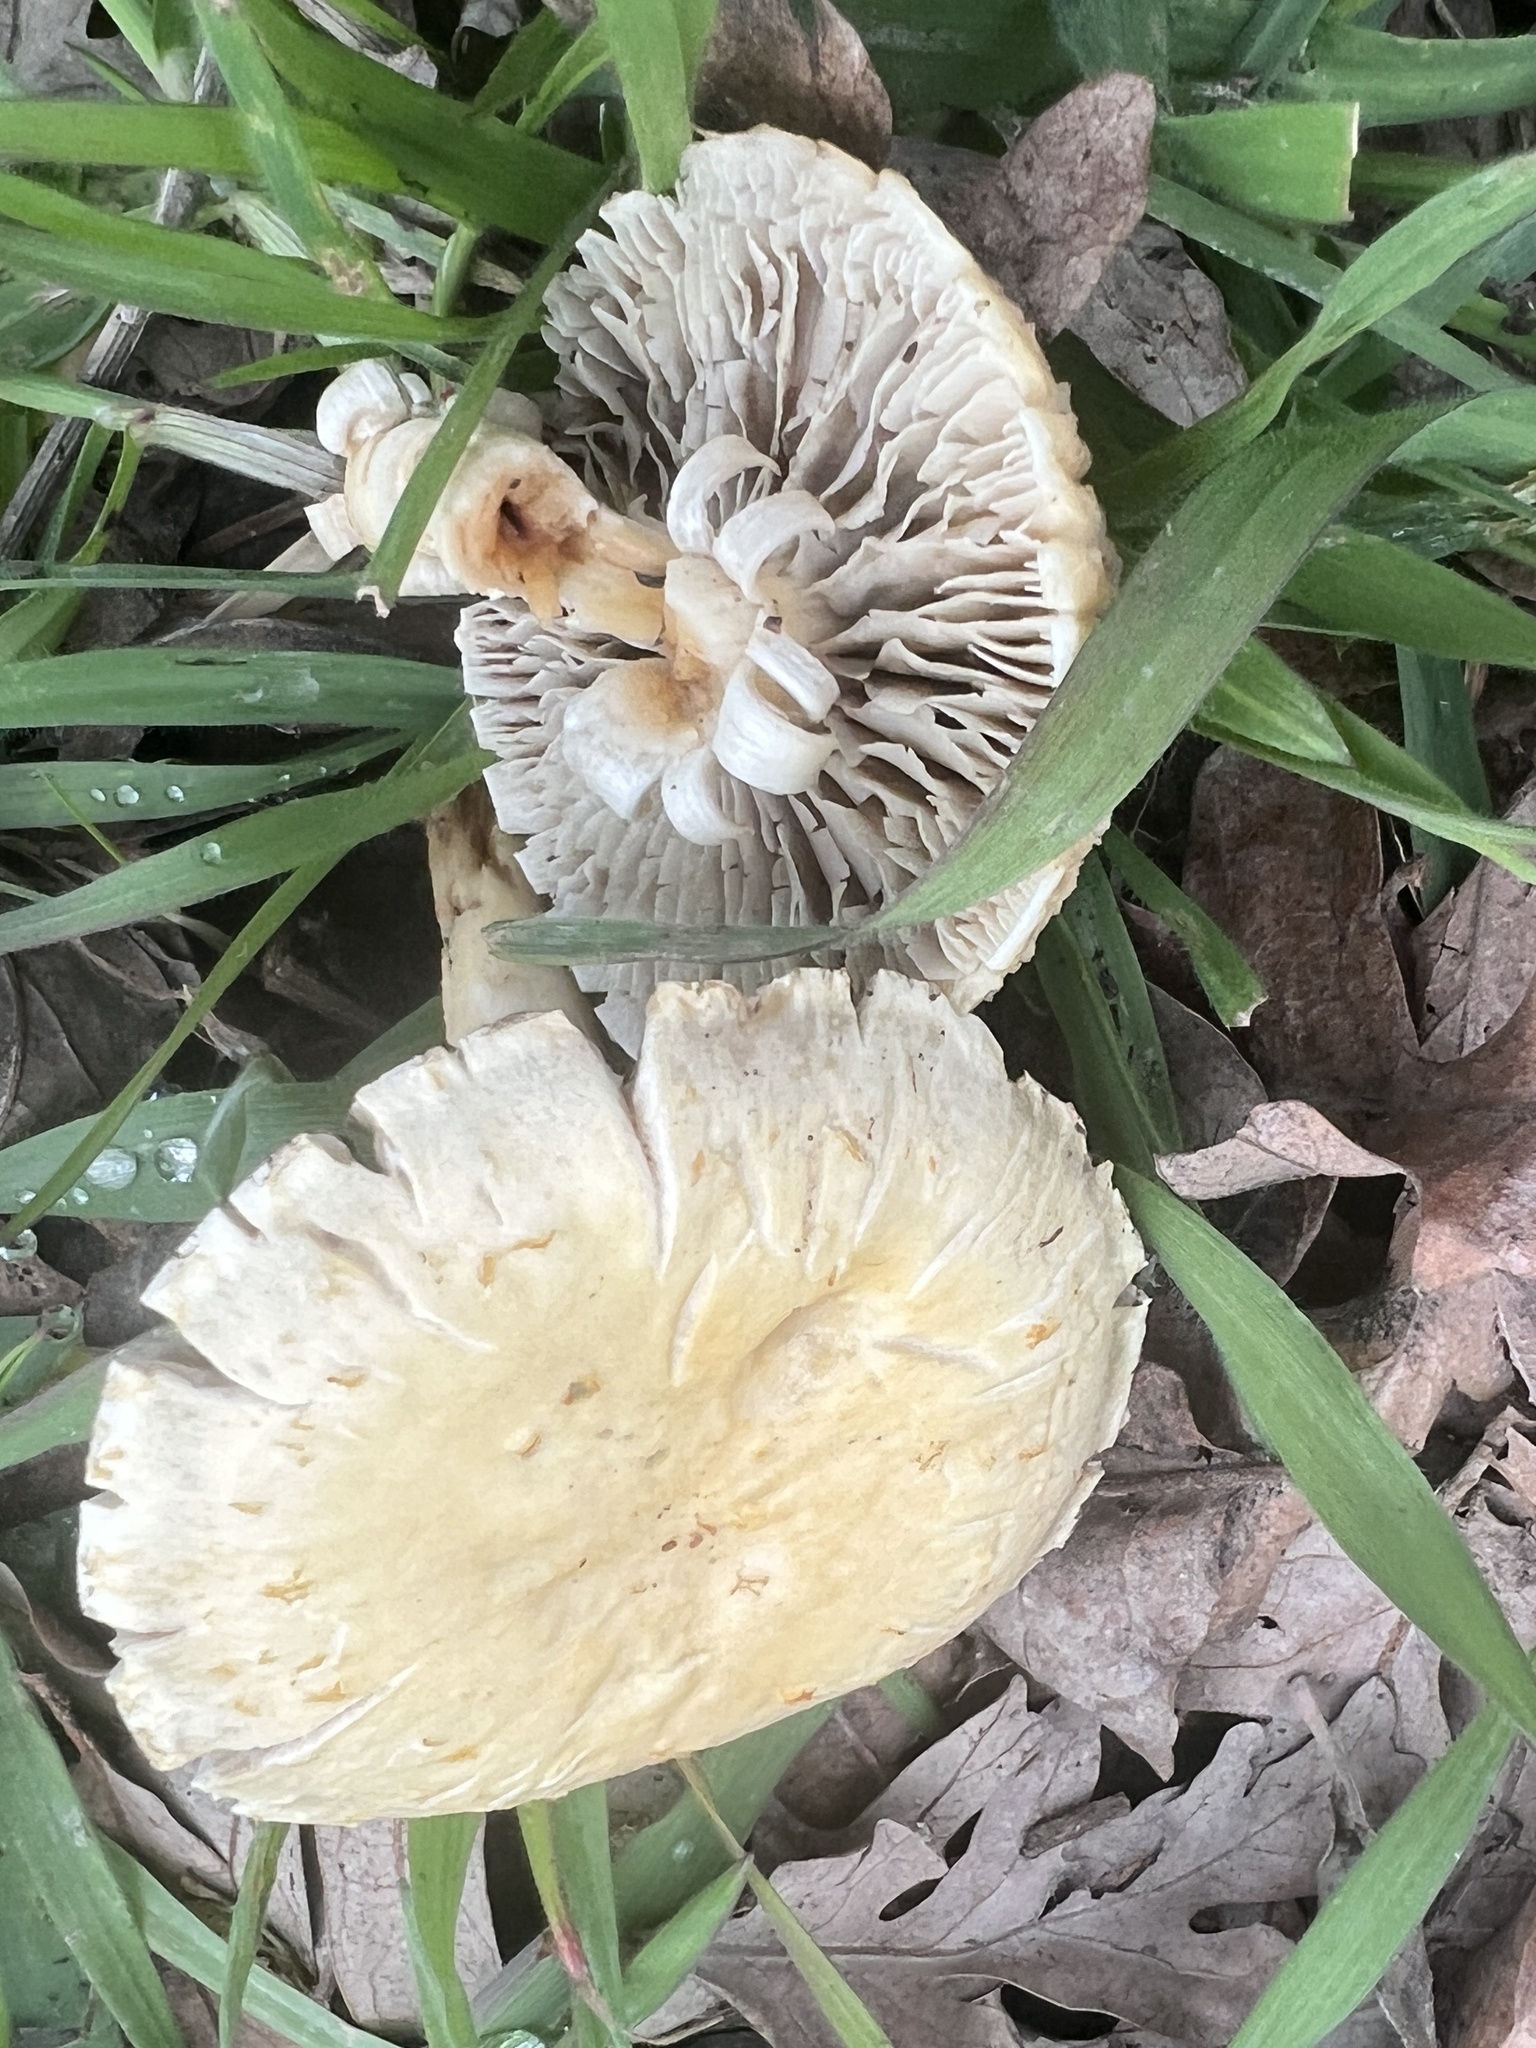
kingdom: Fungi
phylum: Basidiomycota
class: Agaricomycetes
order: Agaricales
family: Strophariaceae
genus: Leratiomyces
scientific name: Leratiomyces percevalii
